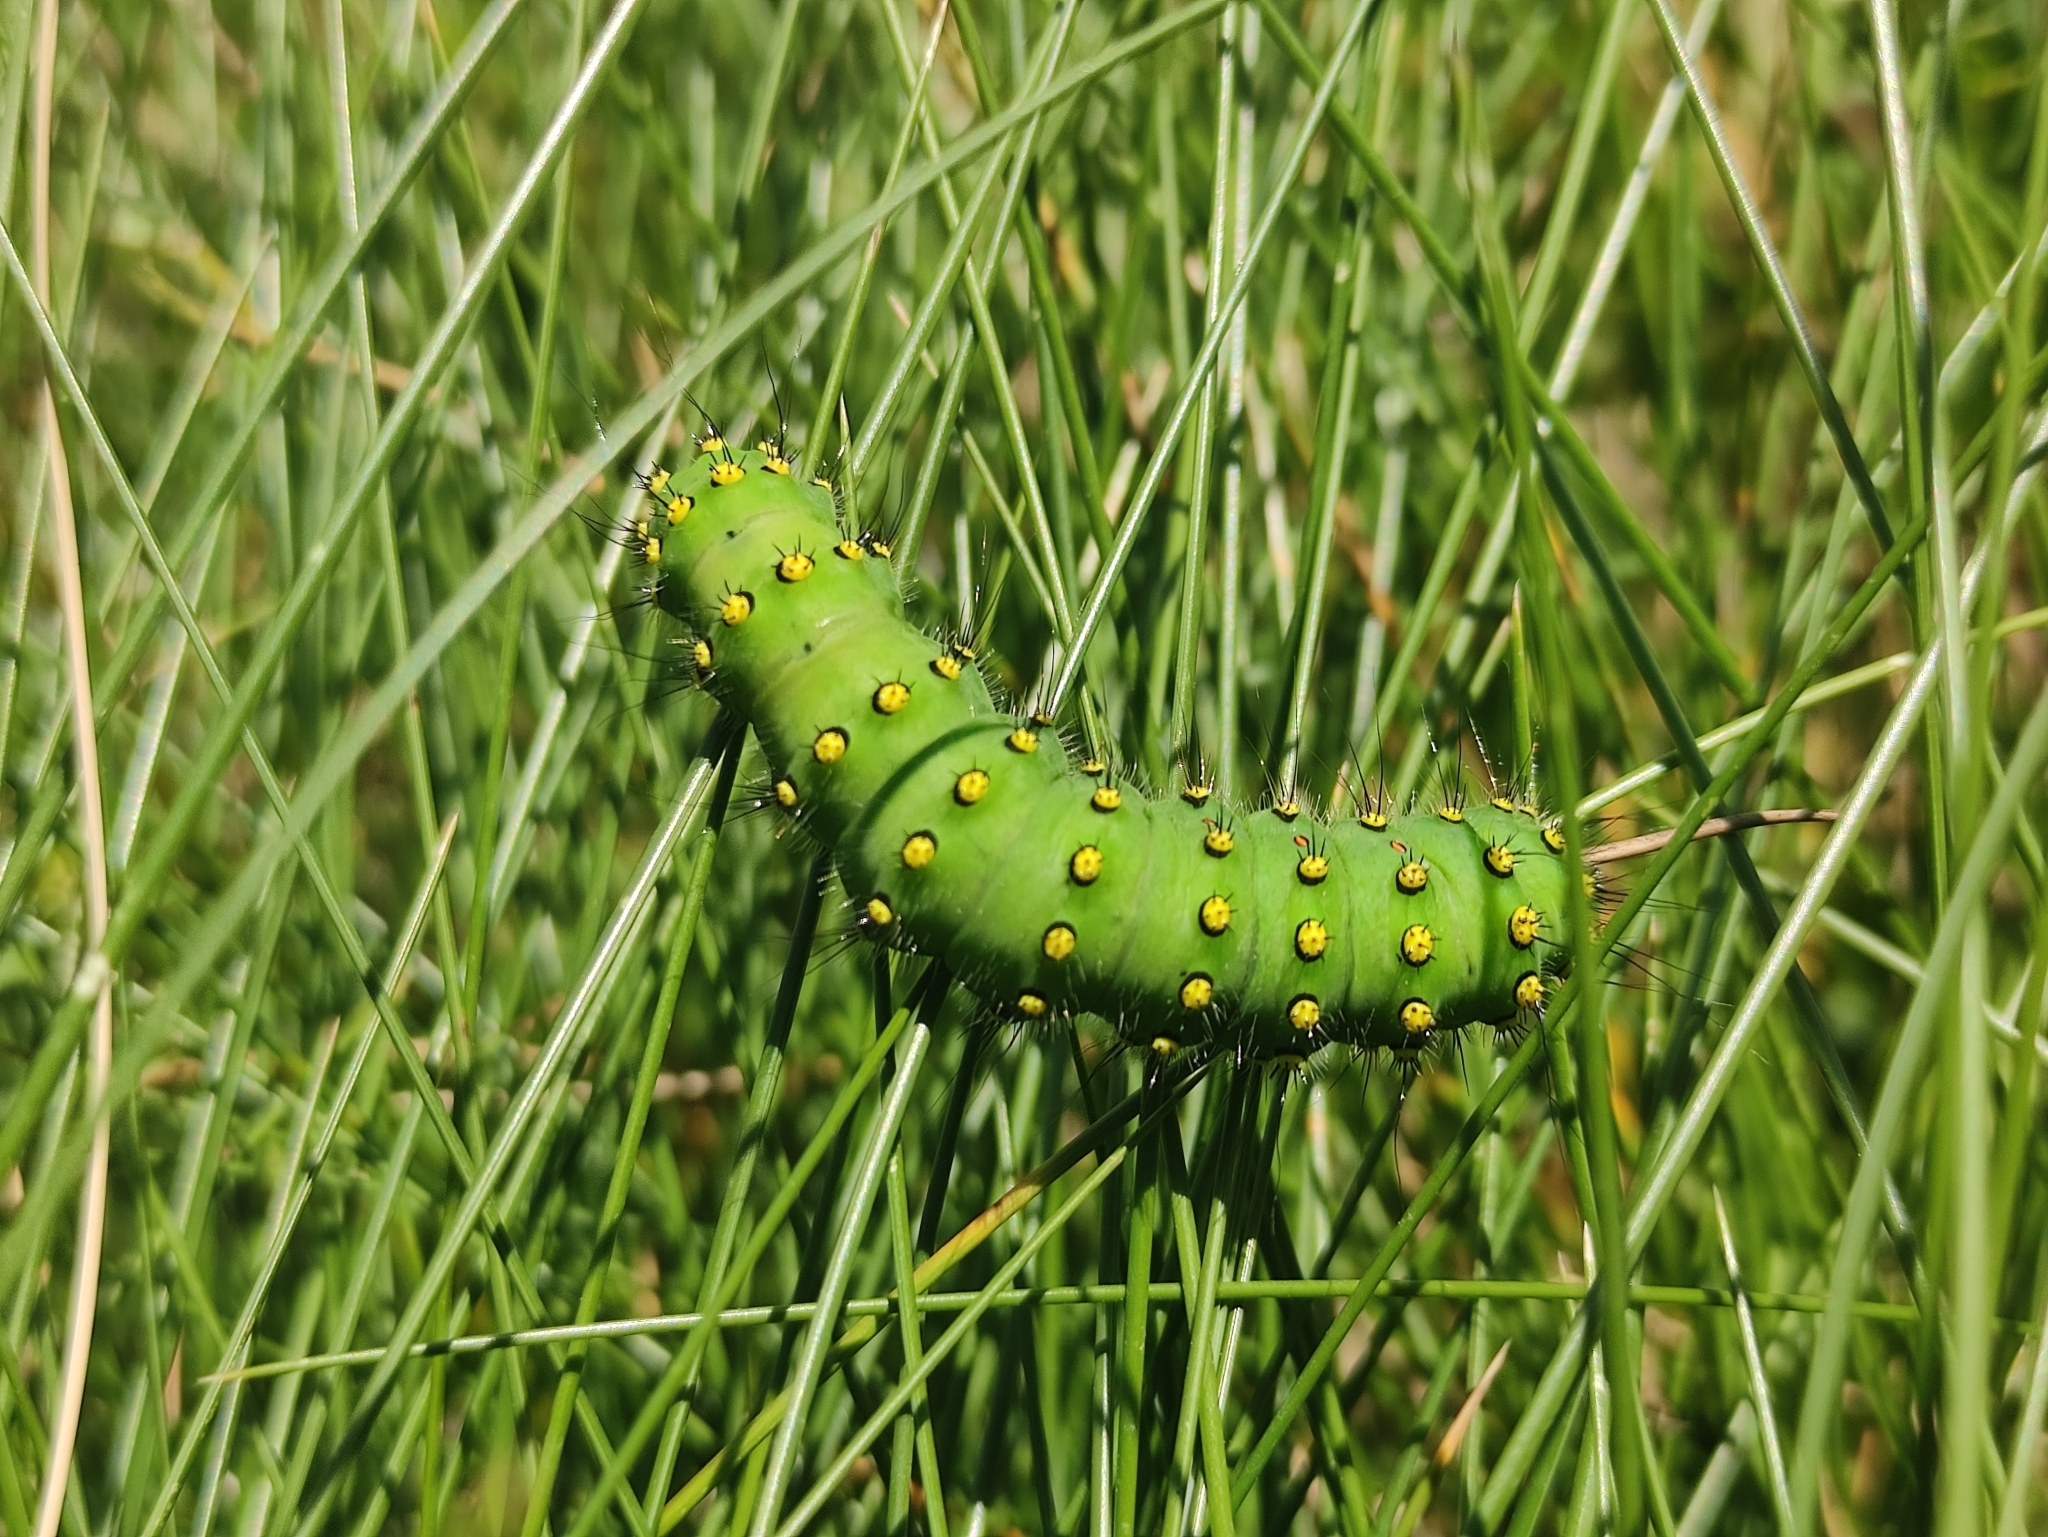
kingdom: Animalia
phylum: Arthropoda
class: Insecta
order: Lepidoptera
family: Saturniidae
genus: Saturnia
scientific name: Saturnia pavonia
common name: Emperor moth
